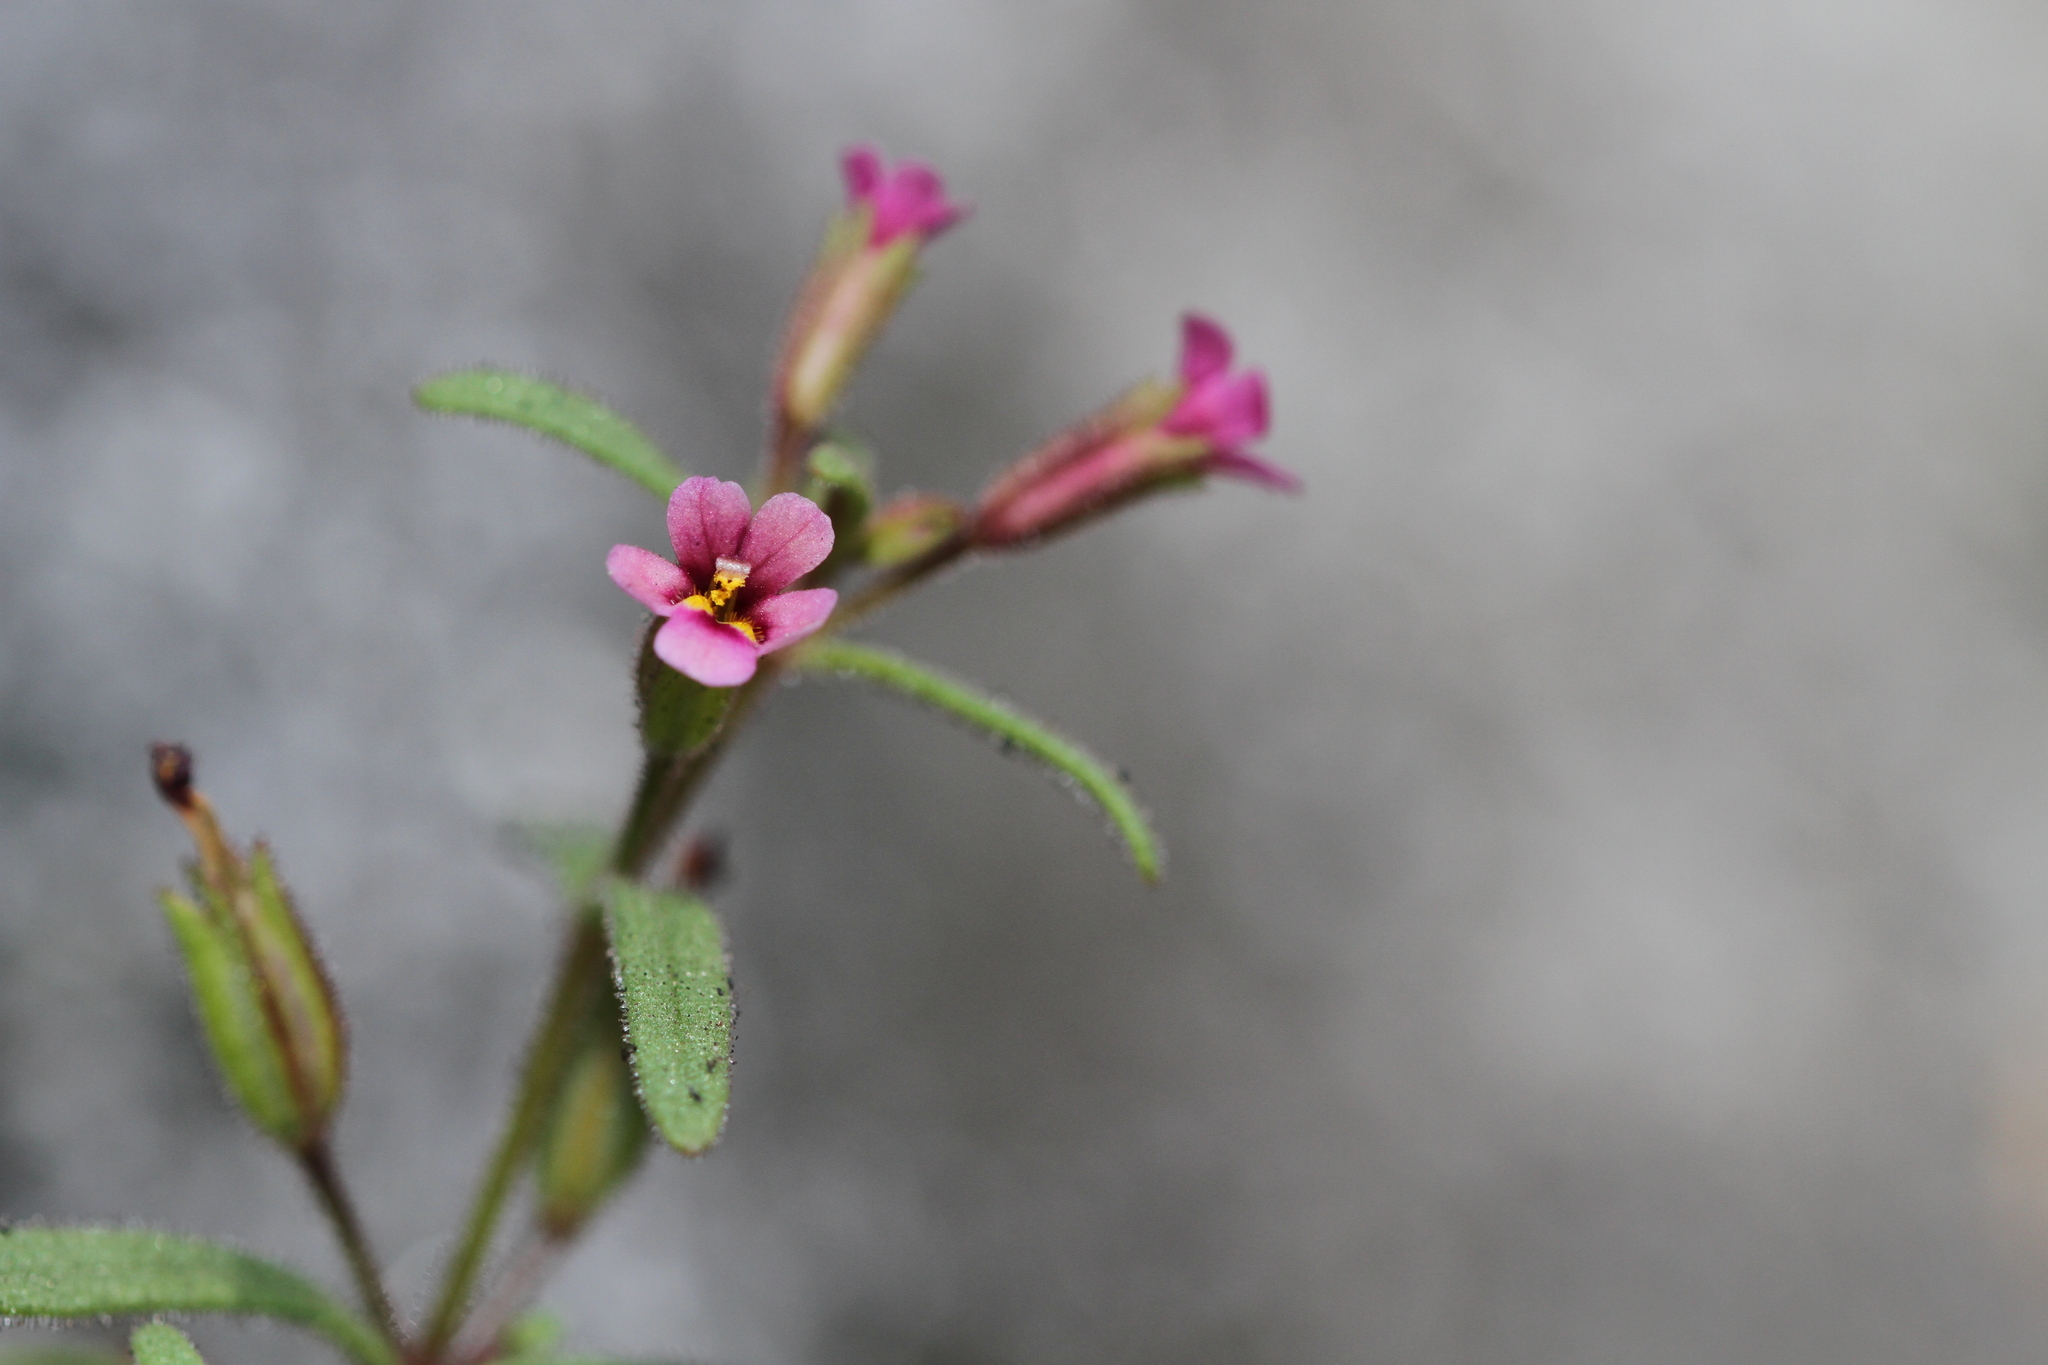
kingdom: Plantae
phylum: Tracheophyta
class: Magnoliopsida
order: Lamiales
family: Phrymaceae
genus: Erythranthe
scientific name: Erythranthe breweri
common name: Brewer's monkeyflower
